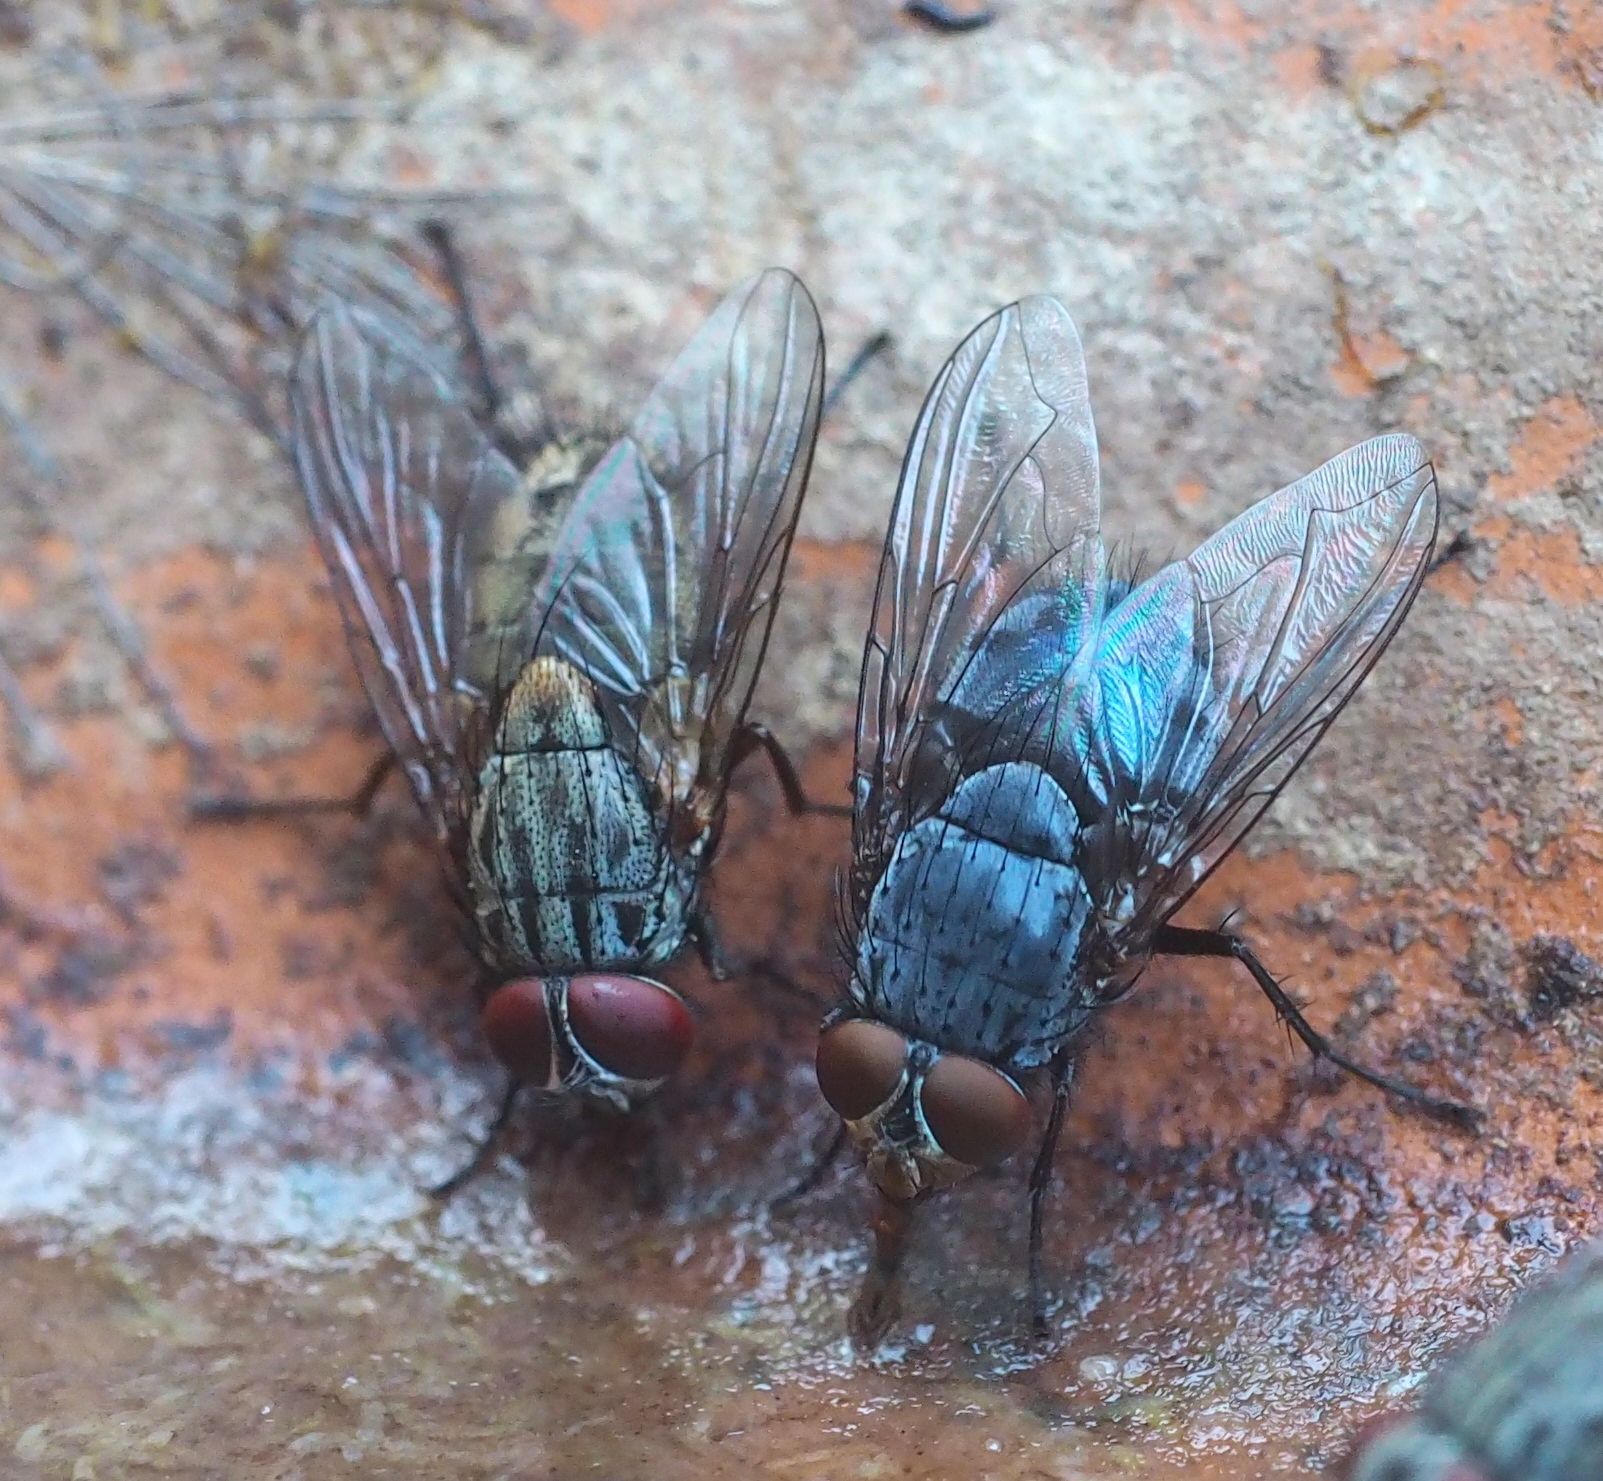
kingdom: Animalia
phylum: Arthropoda
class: Insecta
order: Diptera
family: Muscidae
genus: Muscina
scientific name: Muscina stabulans
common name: False stable fly
